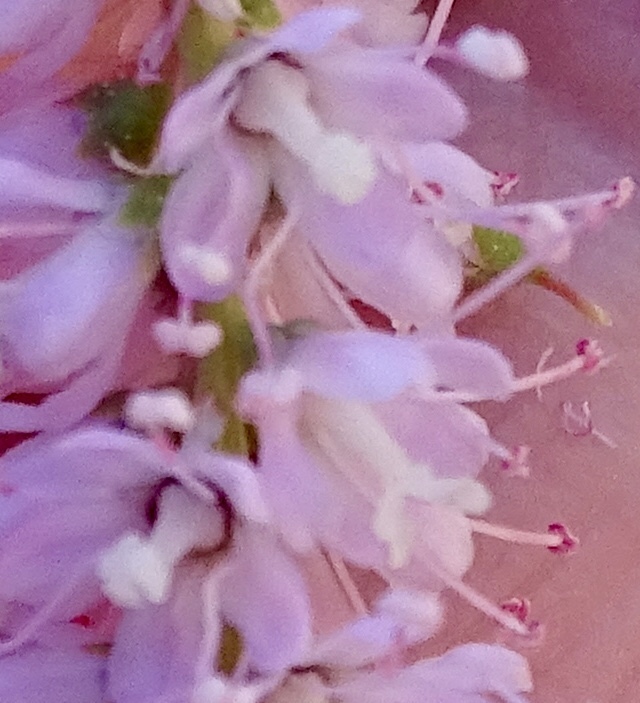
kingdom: Plantae
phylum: Tracheophyta
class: Magnoliopsida
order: Caryophyllales
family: Tamaricaceae
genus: Tamarix
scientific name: Tamarix ramosissima
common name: Pink tamarisk
